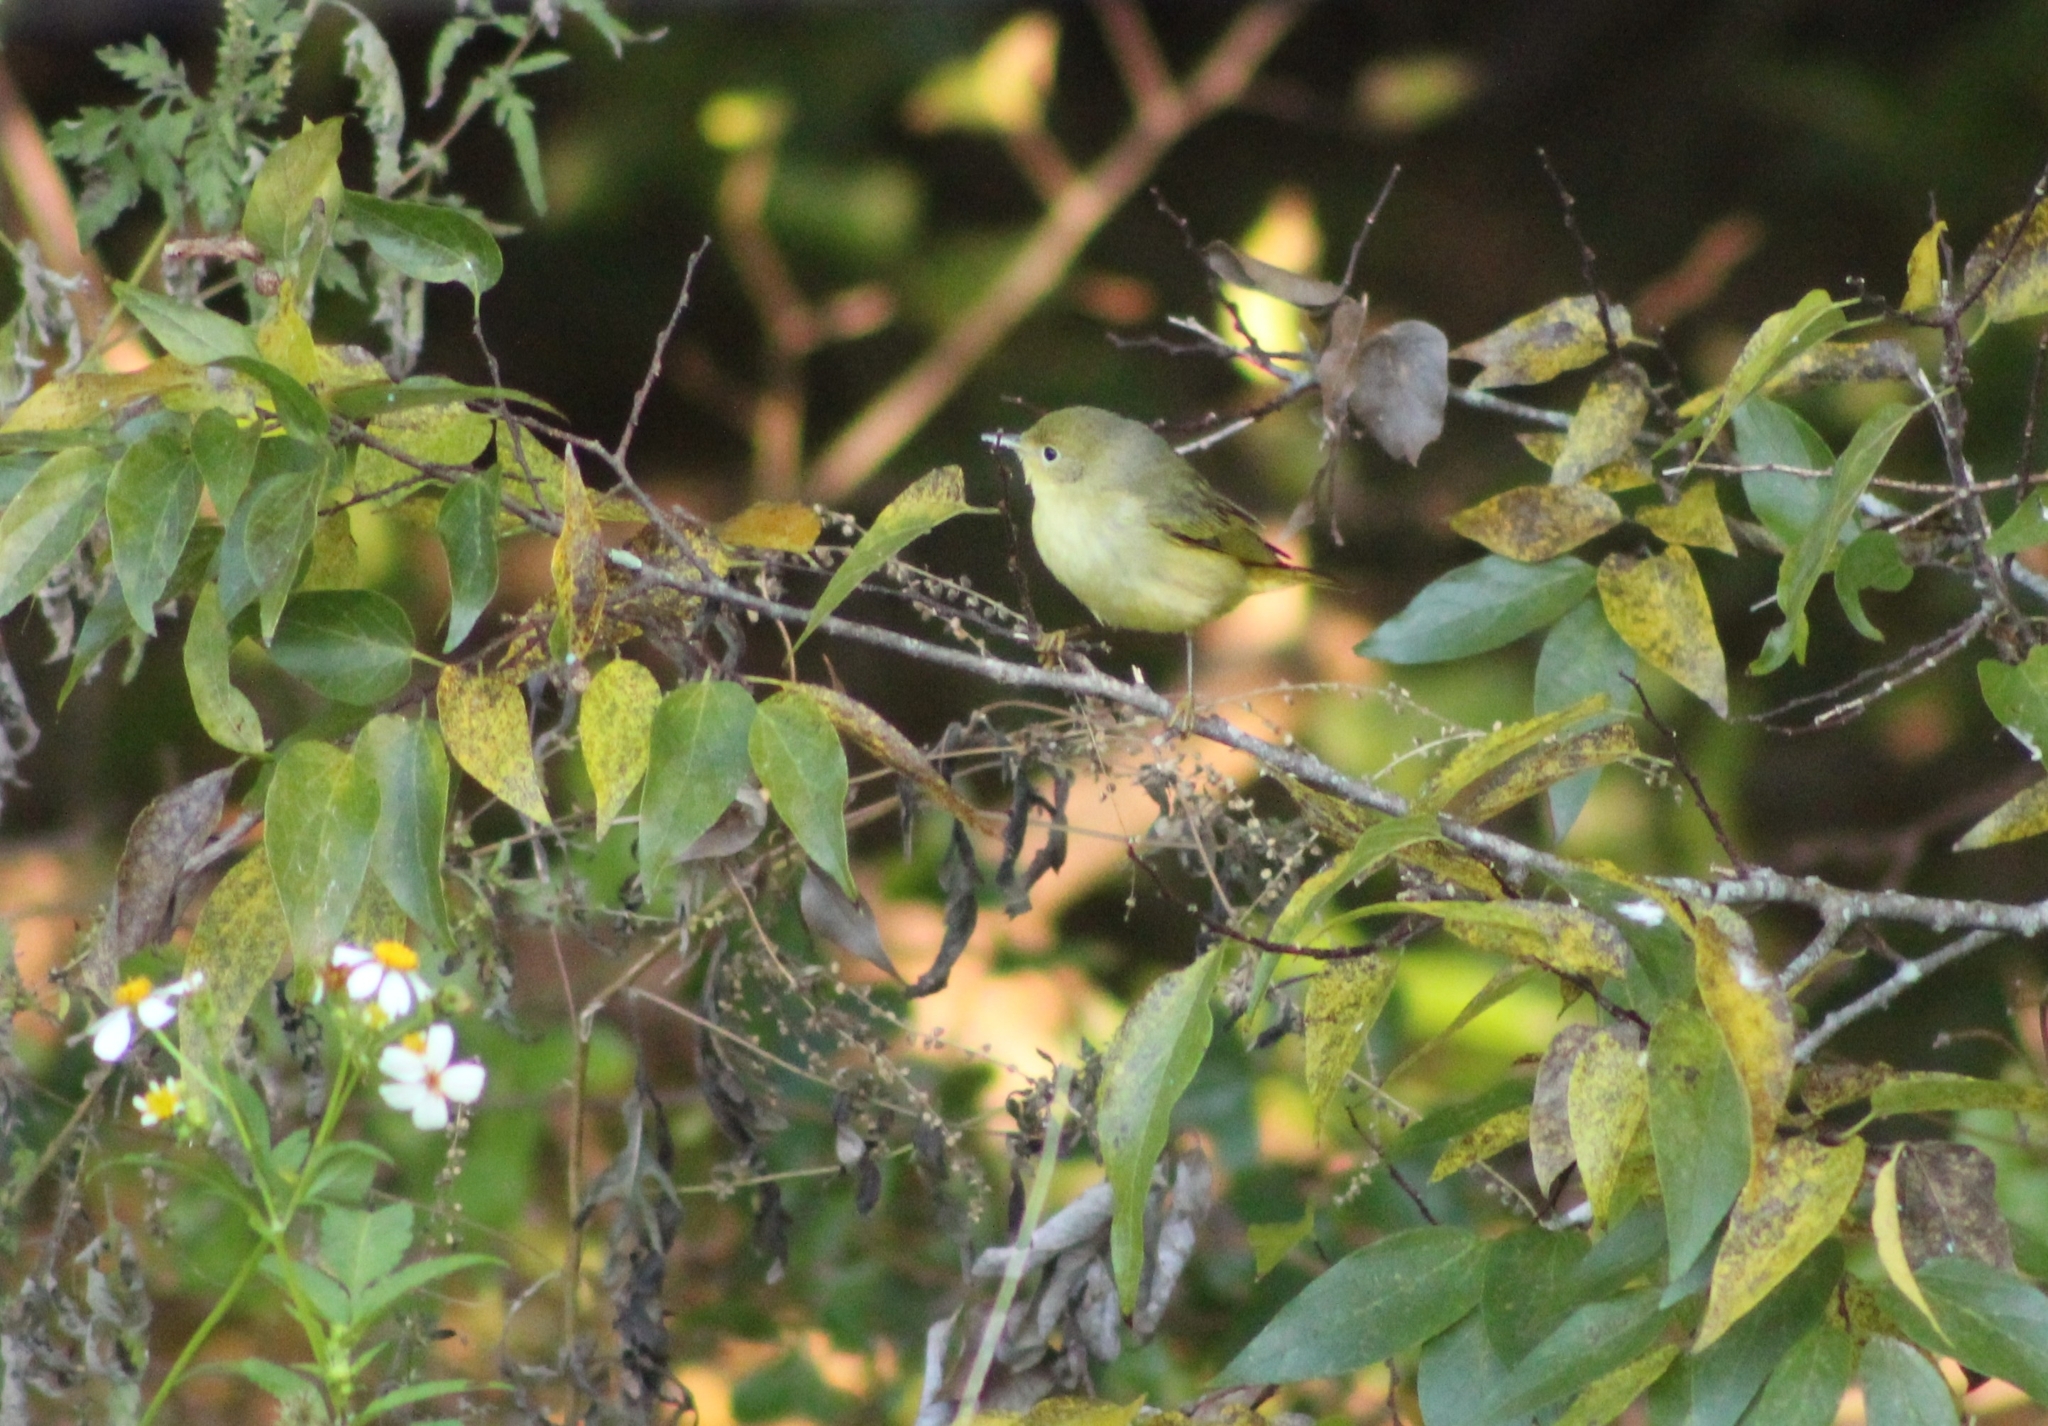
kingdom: Animalia
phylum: Chordata
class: Aves
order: Passeriformes
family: Parulidae
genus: Setophaga
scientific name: Setophaga petechia
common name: Yellow warbler
